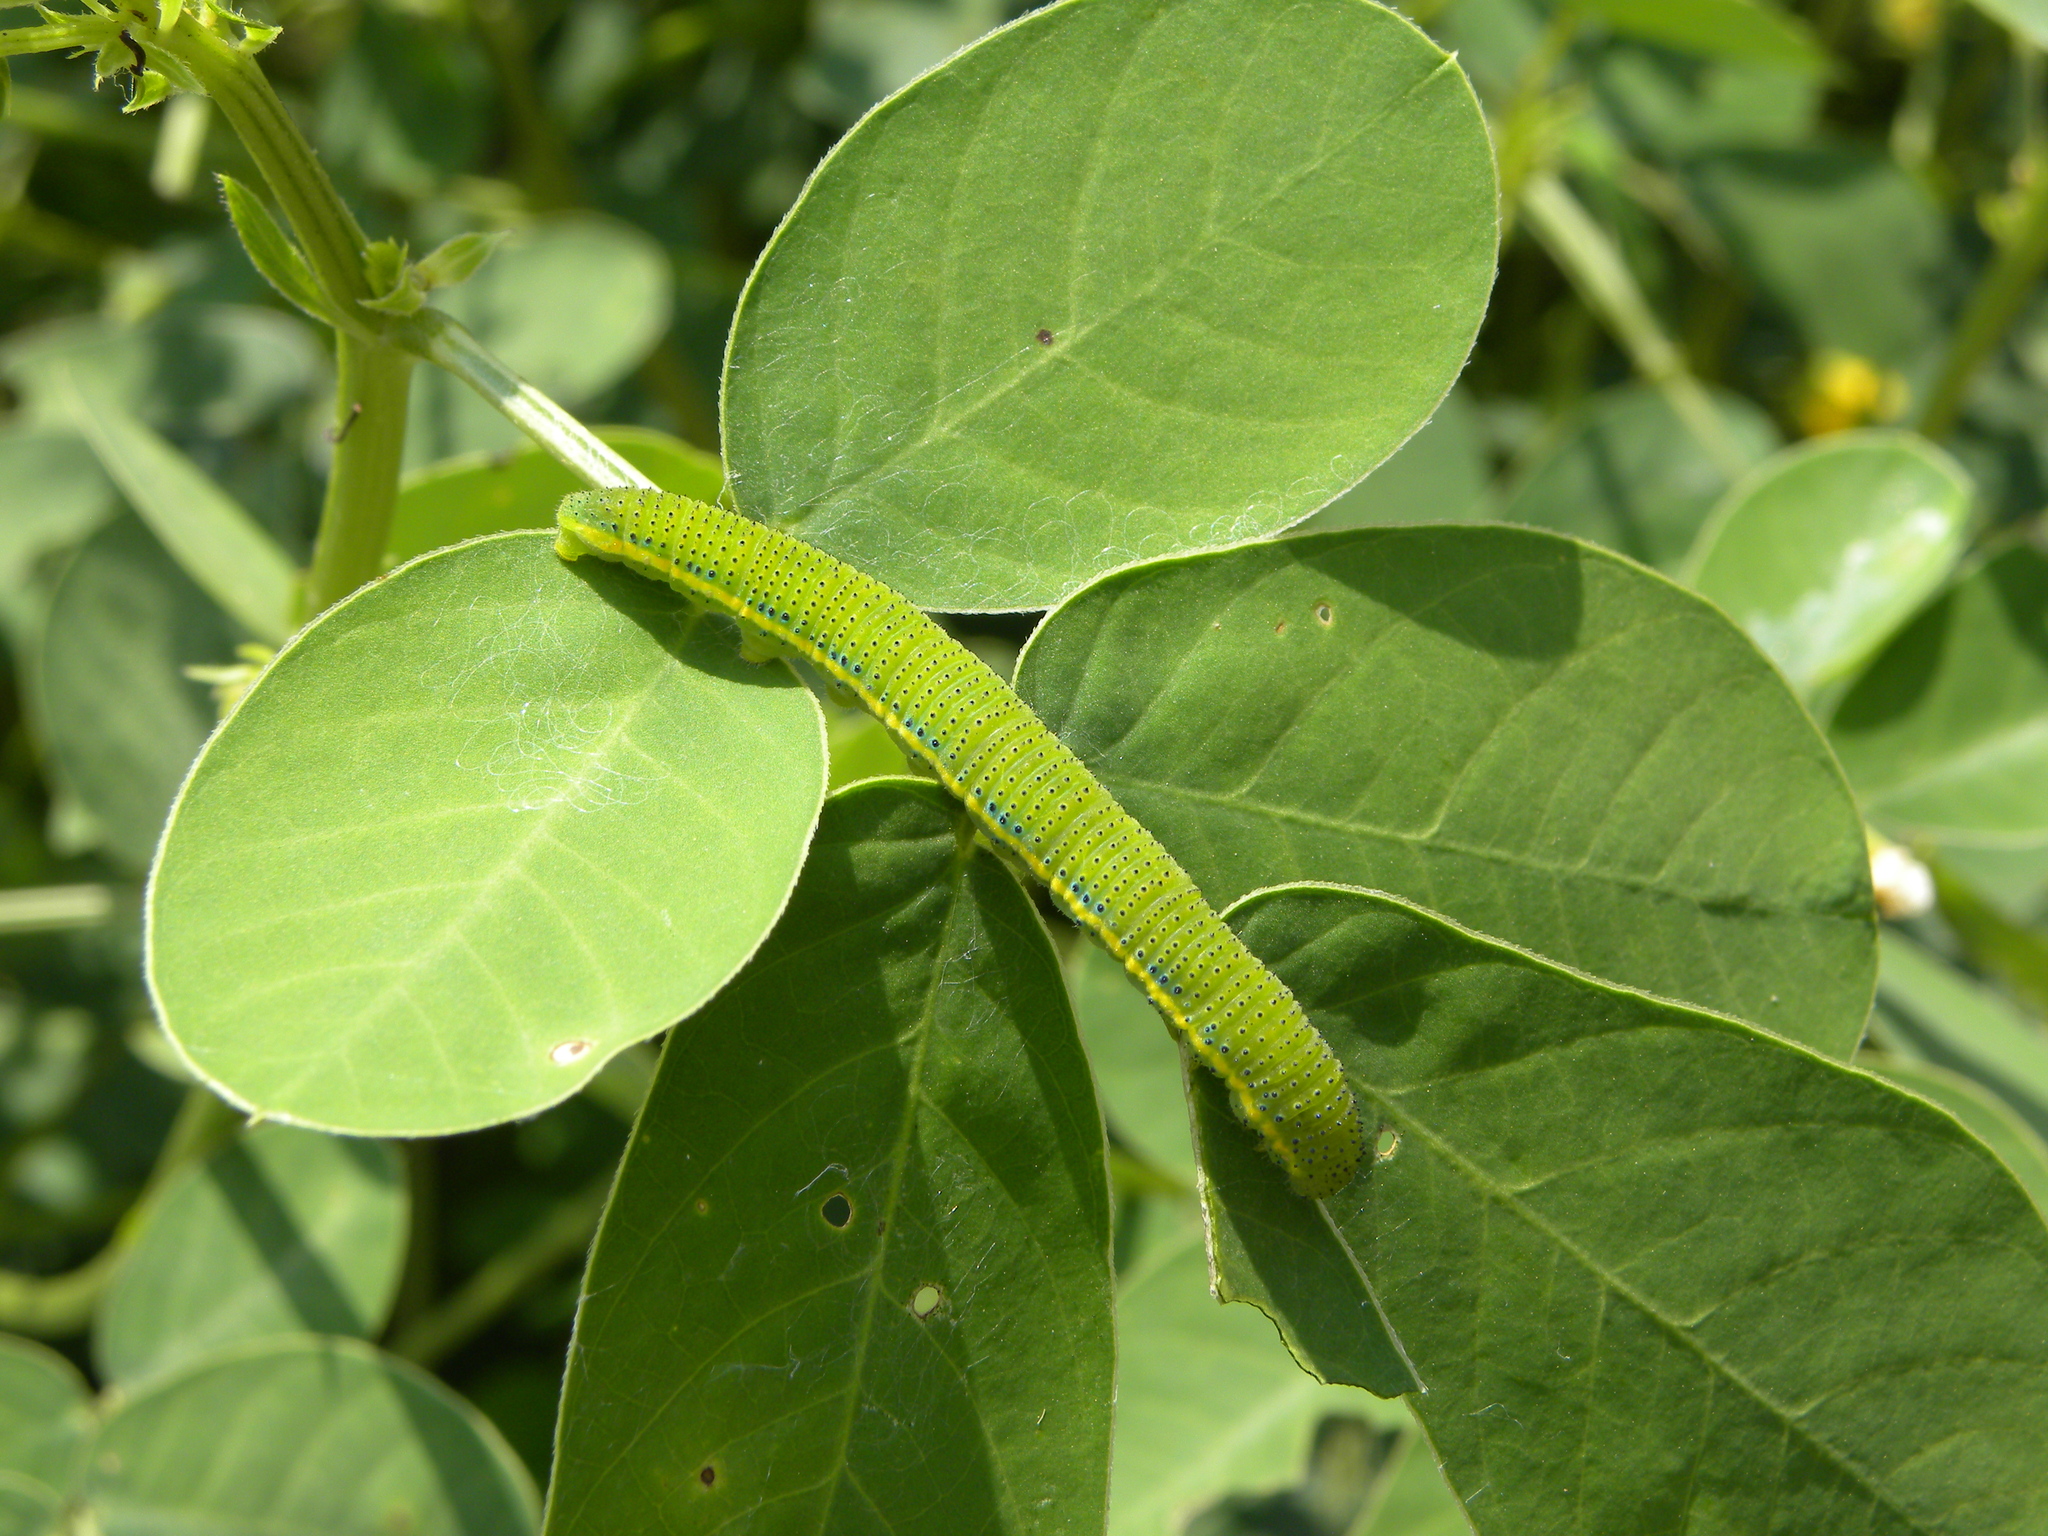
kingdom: Animalia
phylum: Arthropoda
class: Insecta
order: Lepidoptera
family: Pieridae
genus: Phoebis
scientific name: Phoebis sennae
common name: Cloudless sulphur
